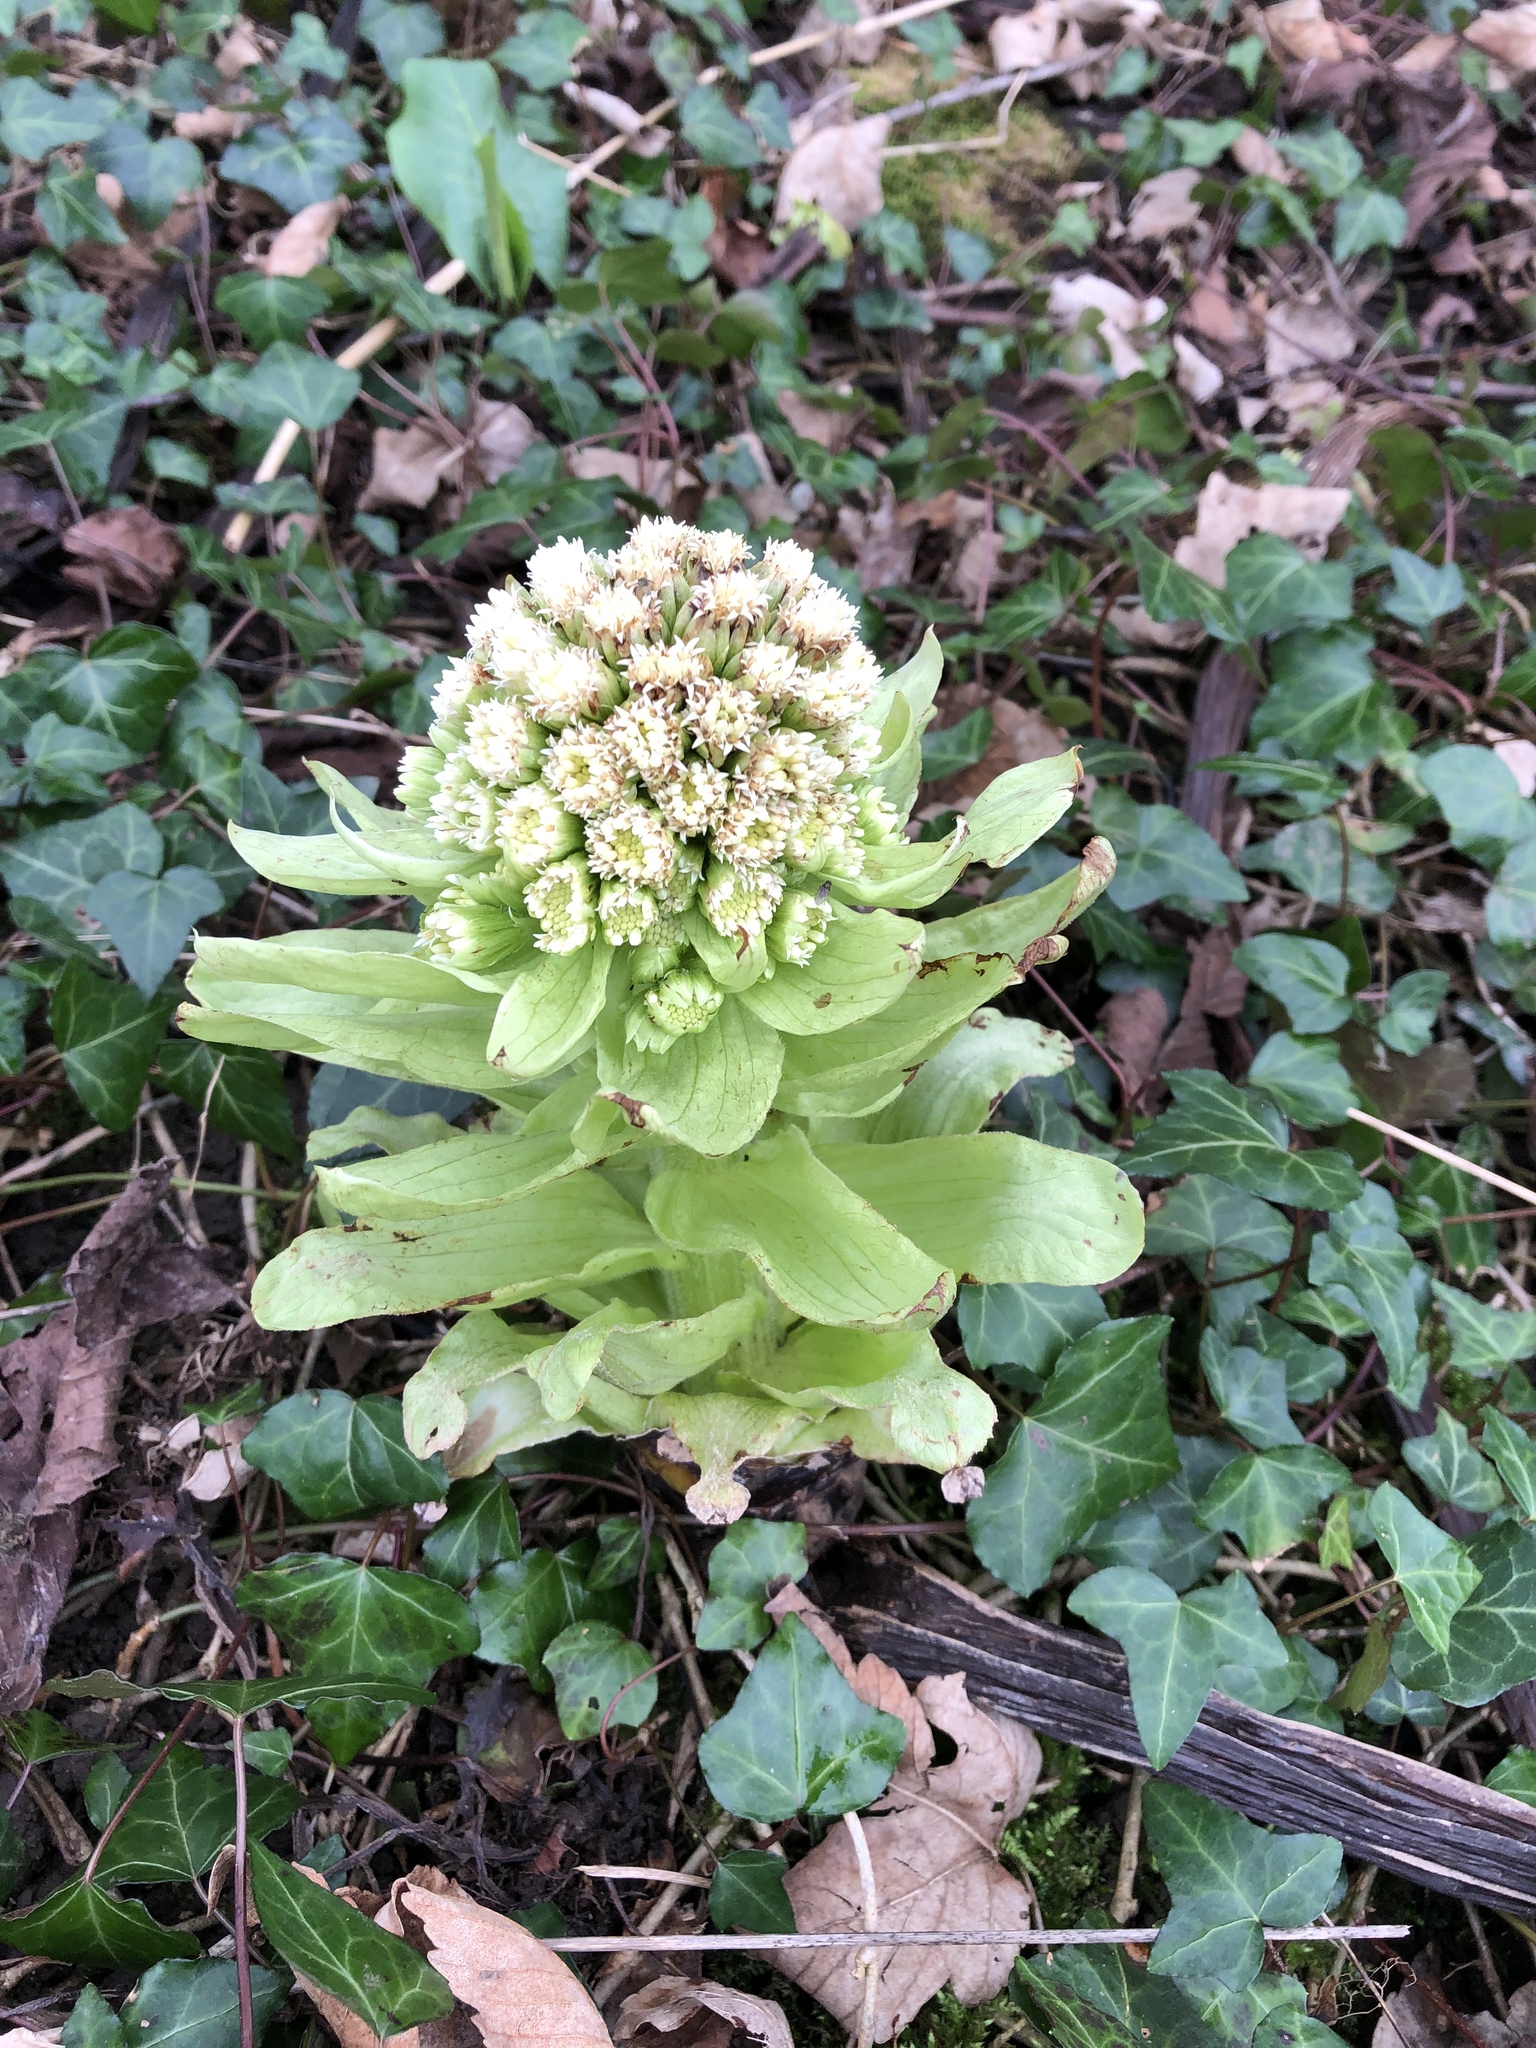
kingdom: Plantae
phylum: Tracheophyta
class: Magnoliopsida
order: Asterales
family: Asteraceae
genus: Petasites
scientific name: Petasites japonicus
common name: Giant butterbur
